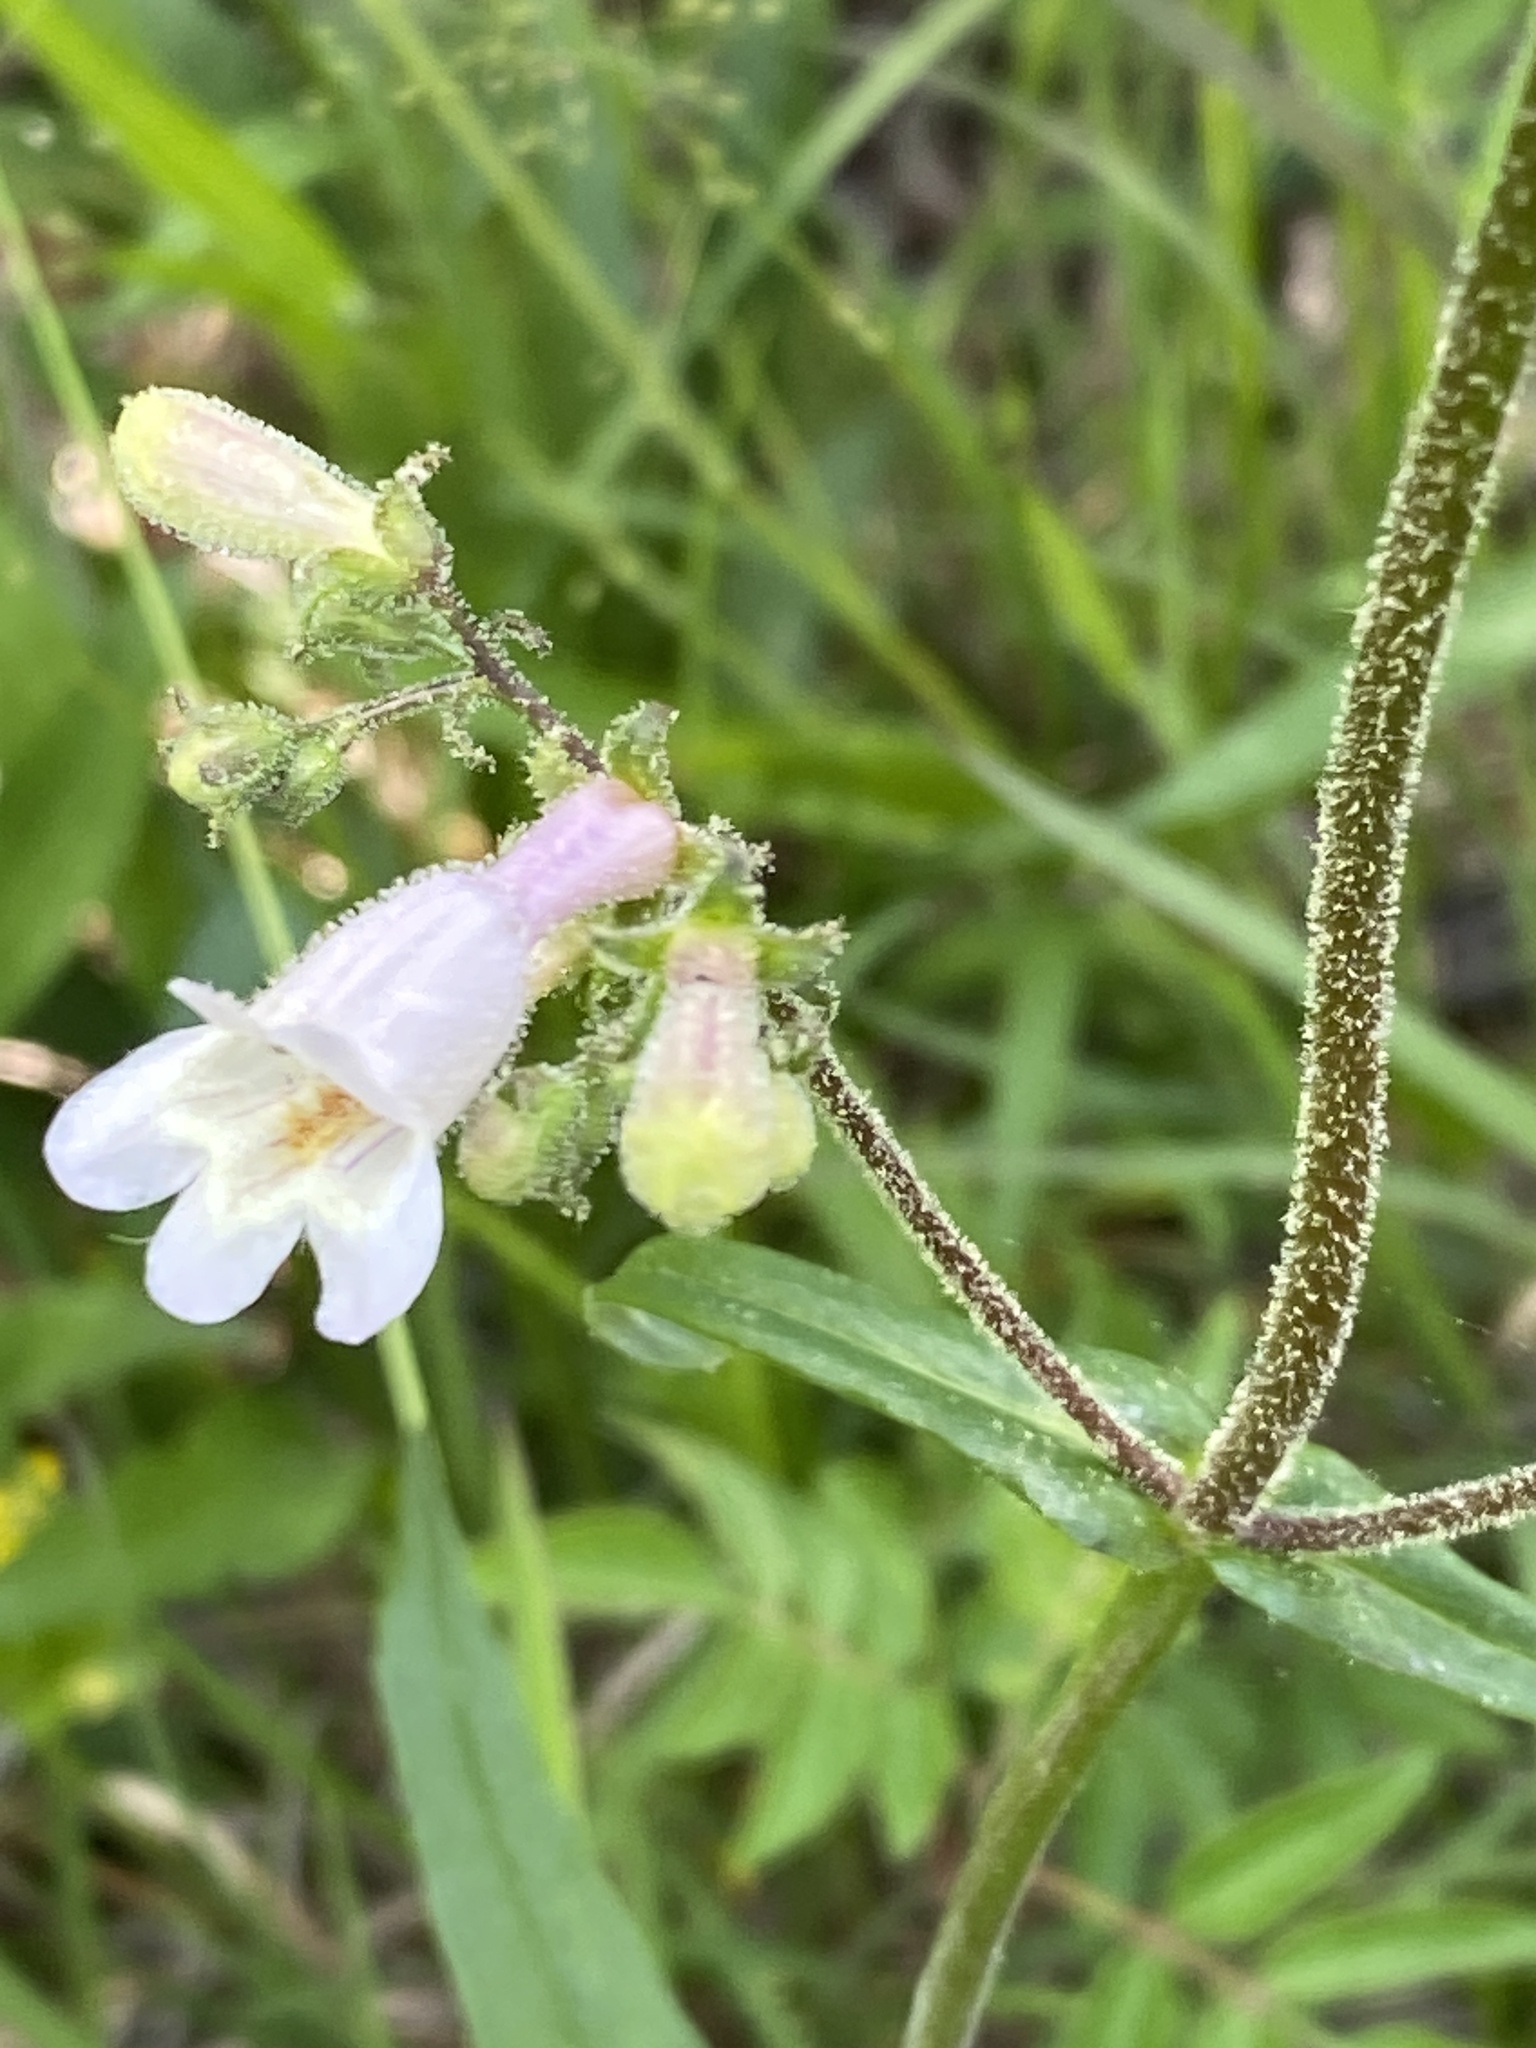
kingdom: Plantae
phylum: Tracheophyta
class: Magnoliopsida
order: Lamiales
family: Plantaginaceae
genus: Penstemon
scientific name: Penstemon laevigatus
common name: Eastern beardtongue
